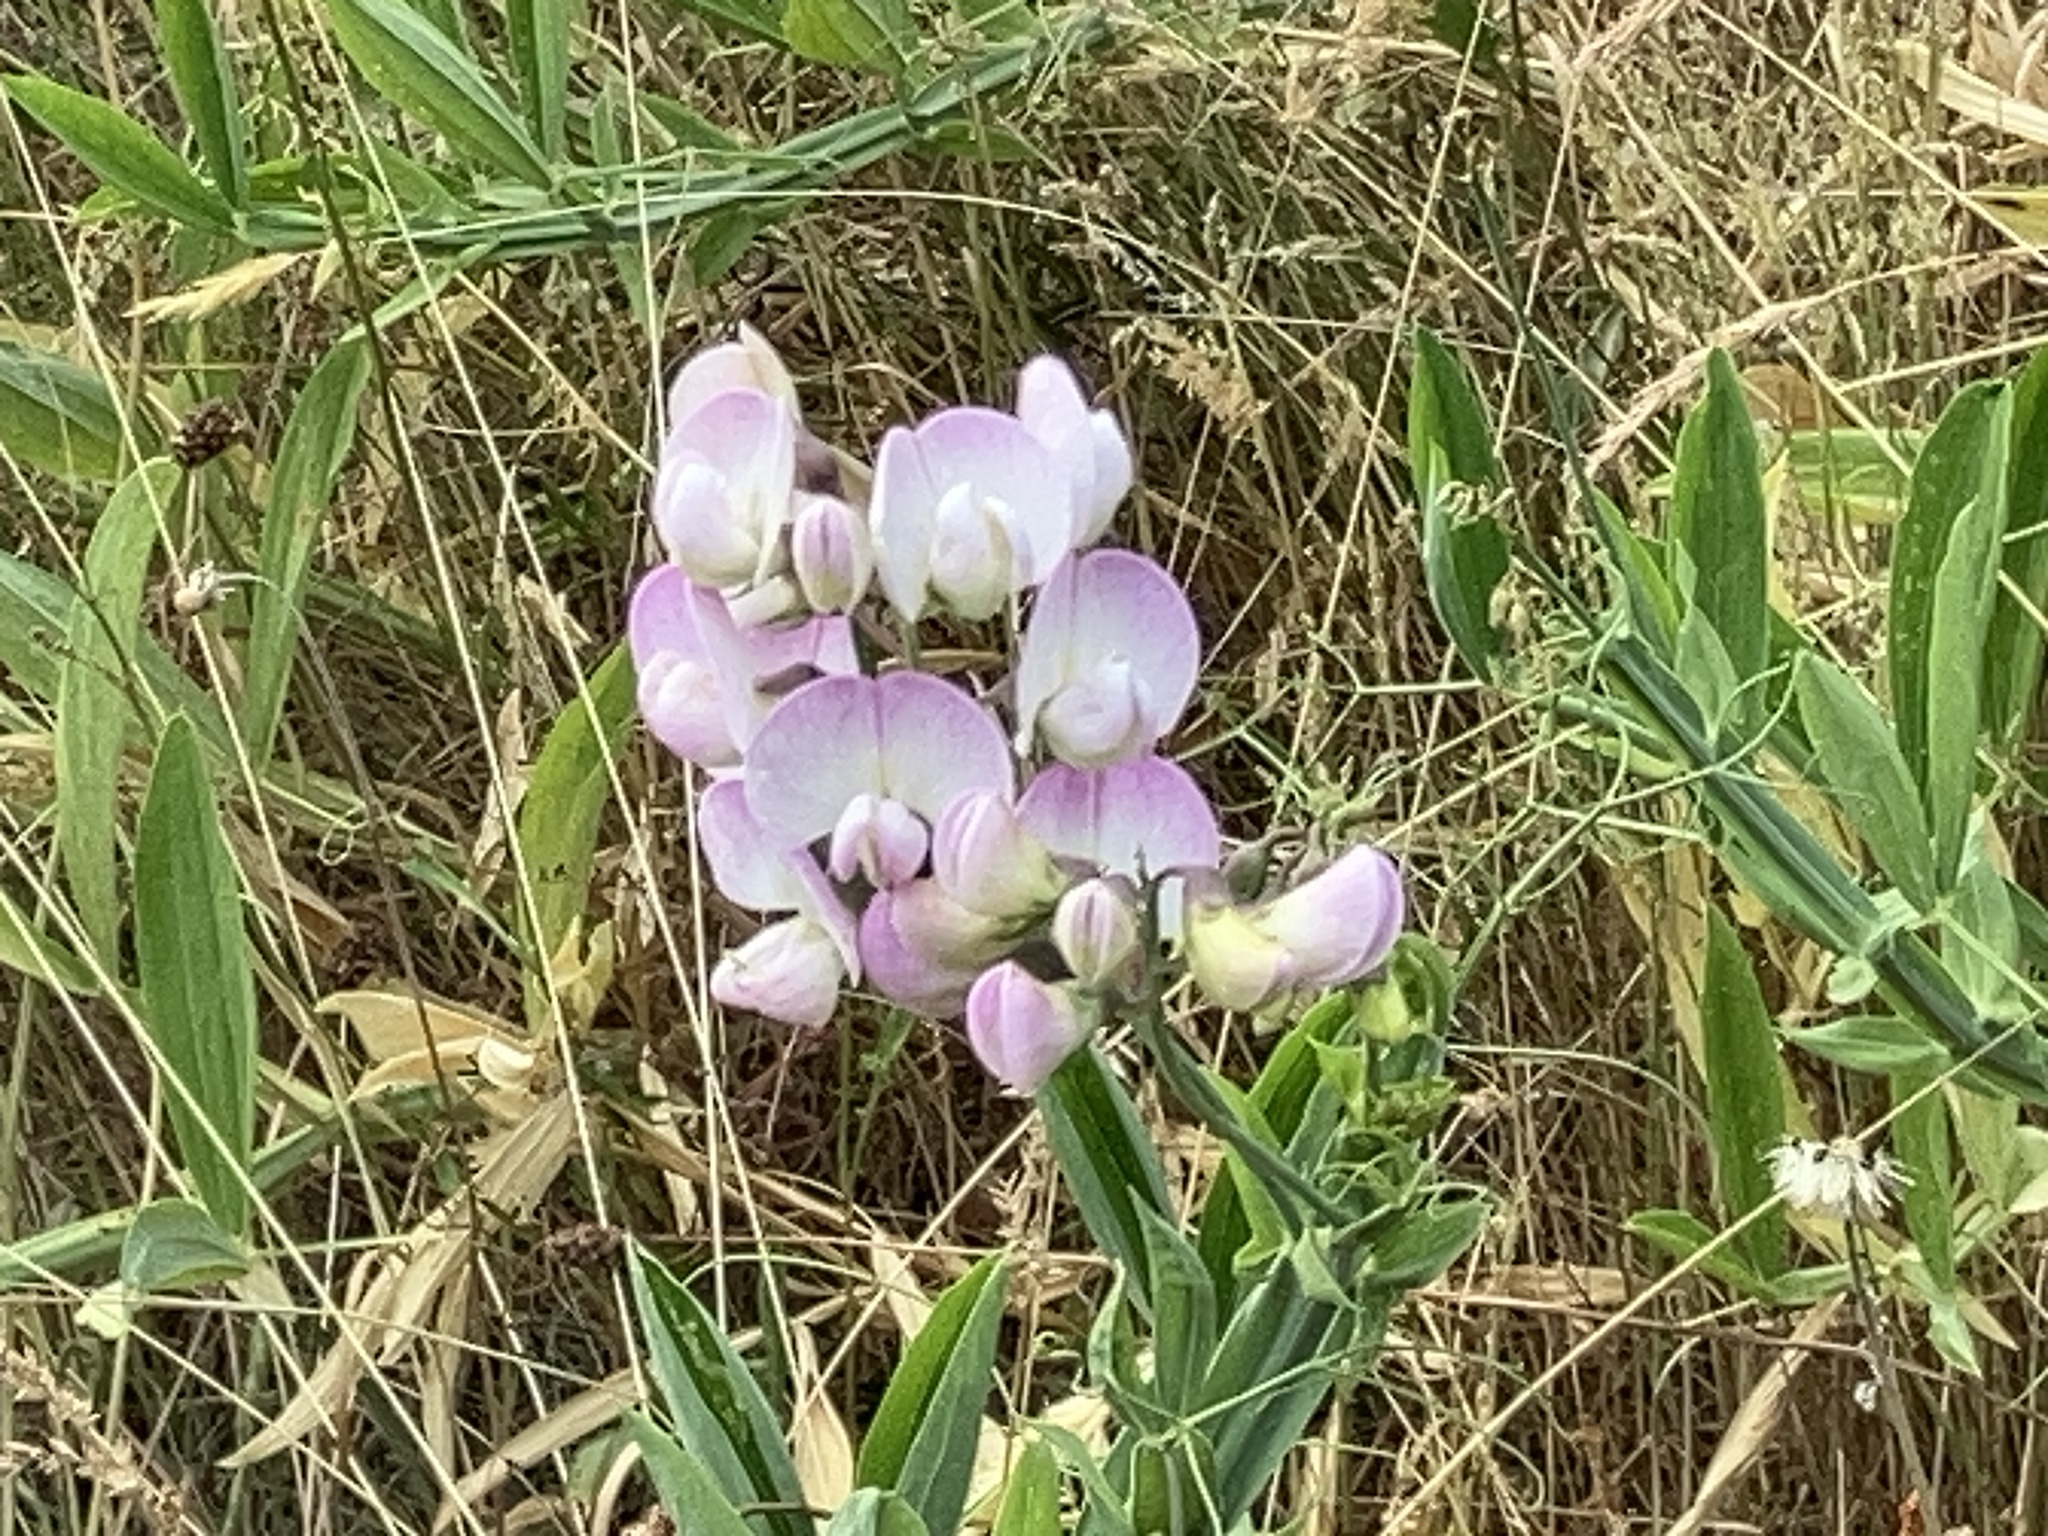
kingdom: Plantae
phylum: Tracheophyta
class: Magnoliopsida
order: Fabales
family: Fabaceae
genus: Lathyrus
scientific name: Lathyrus latifolius
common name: Perennial pea
